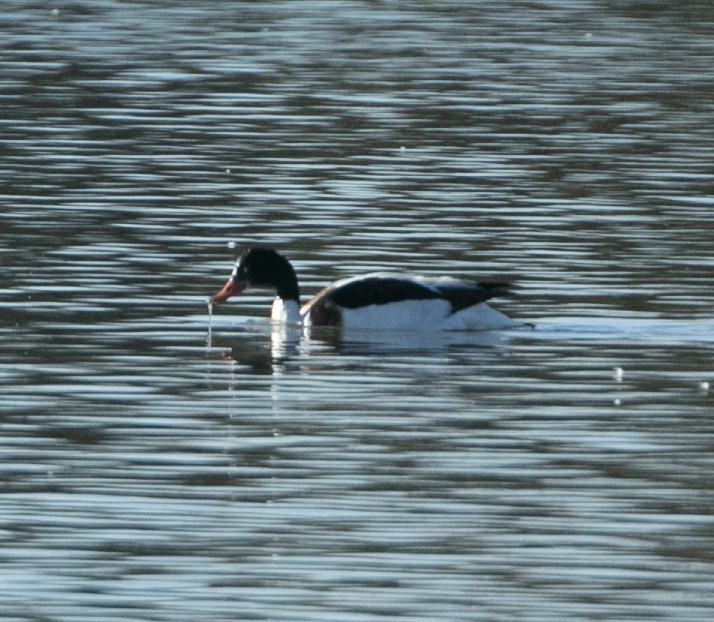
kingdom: Animalia
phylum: Chordata
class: Aves
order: Anseriformes
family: Anatidae
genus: Tadorna
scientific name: Tadorna tadorna
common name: Common shelduck
